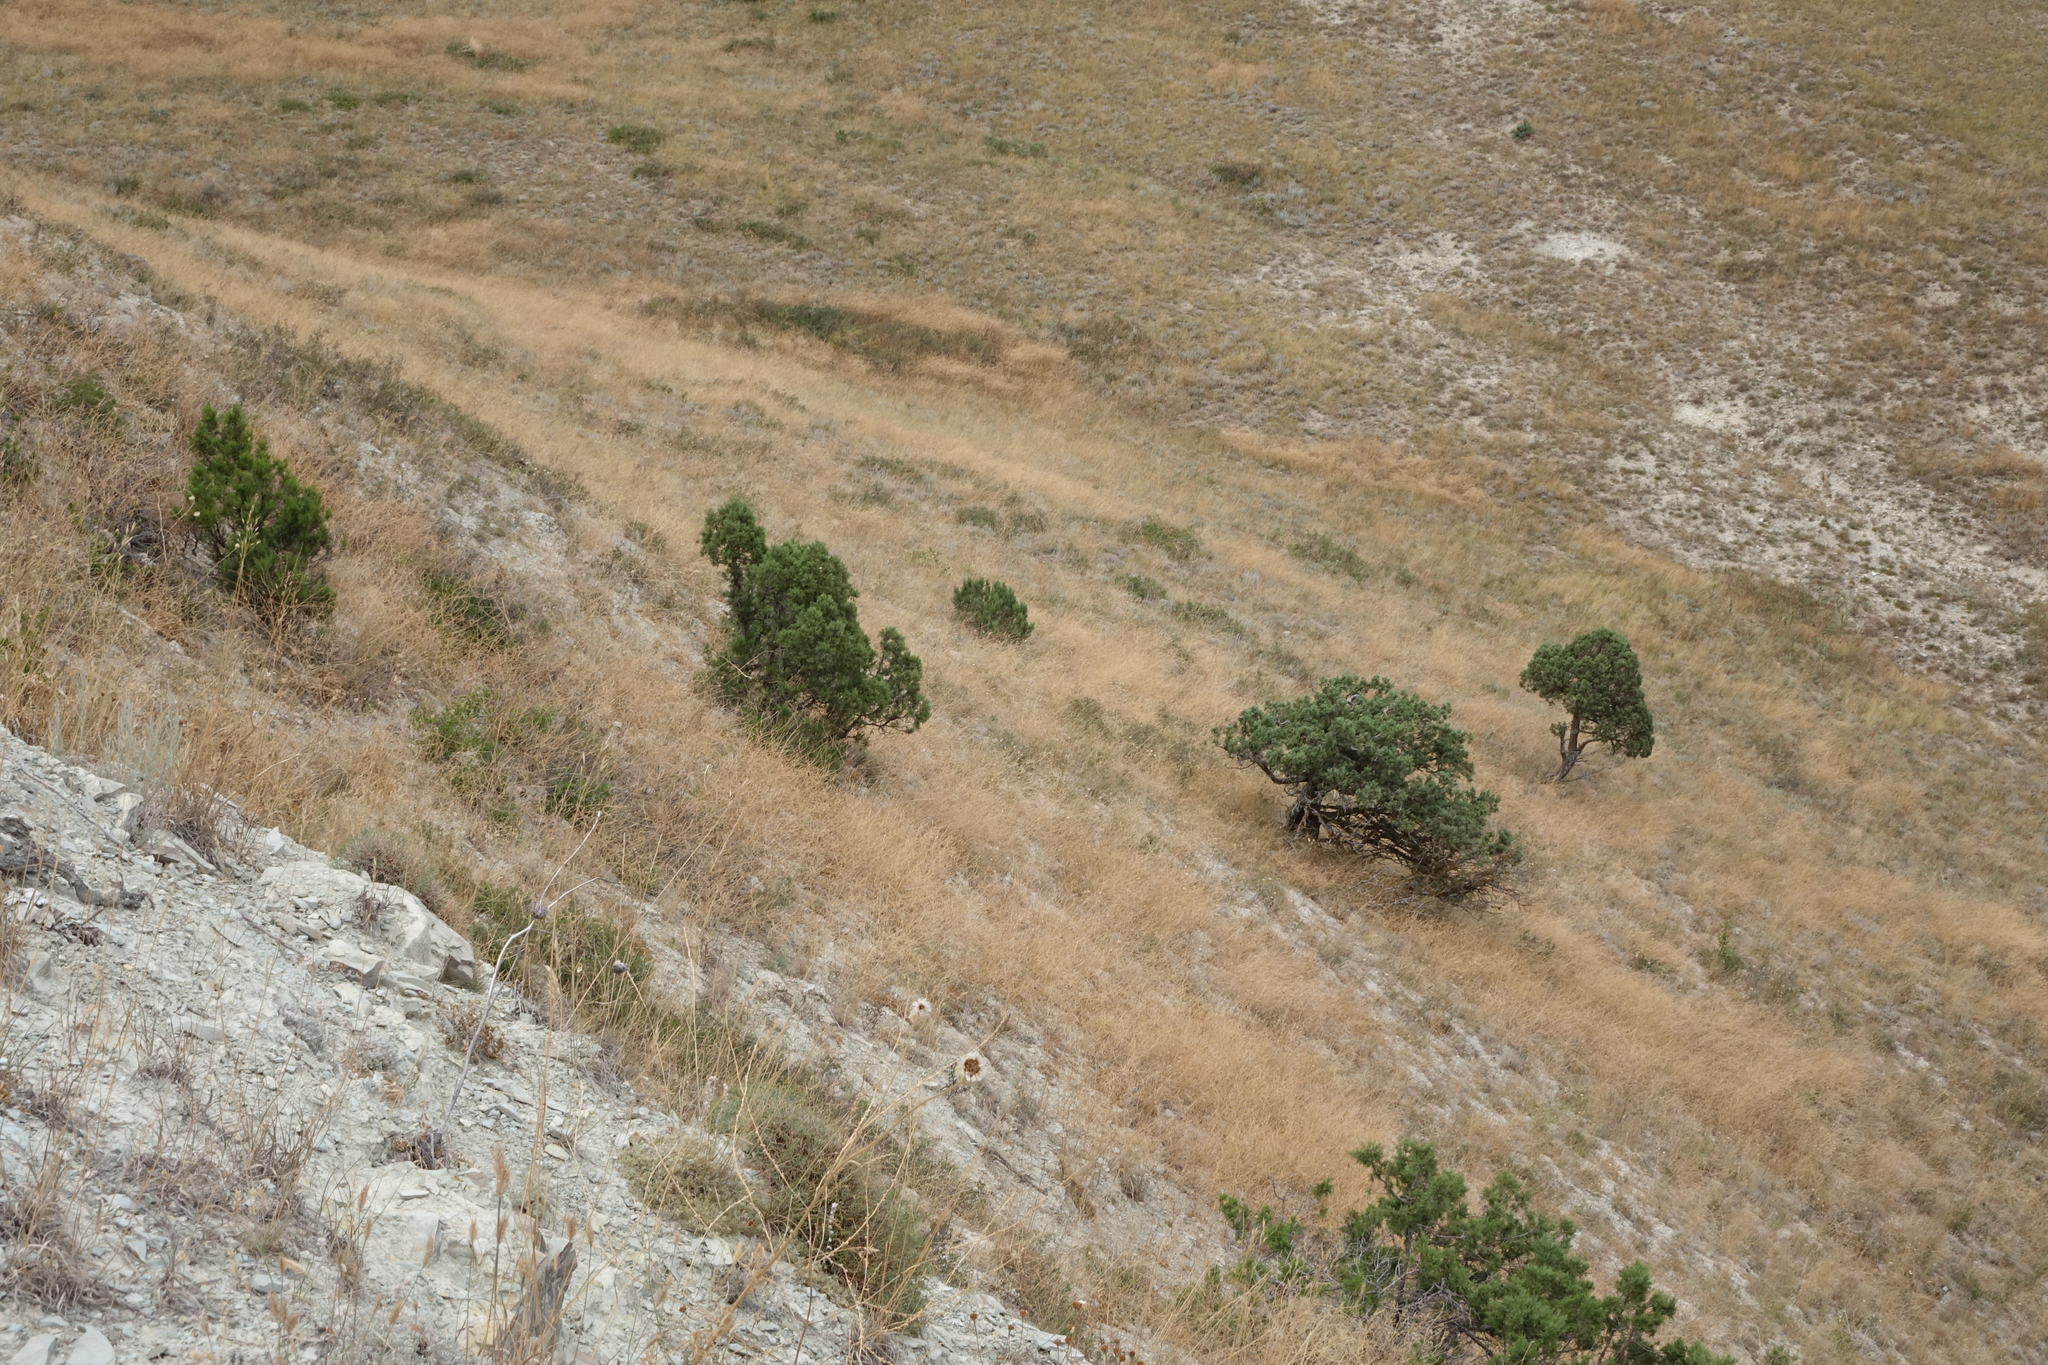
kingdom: Plantae
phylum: Tracheophyta
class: Pinopsida
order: Pinales
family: Cupressaceae
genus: Juniperus
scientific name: Juniperus excelsa
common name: Crimean juniper
